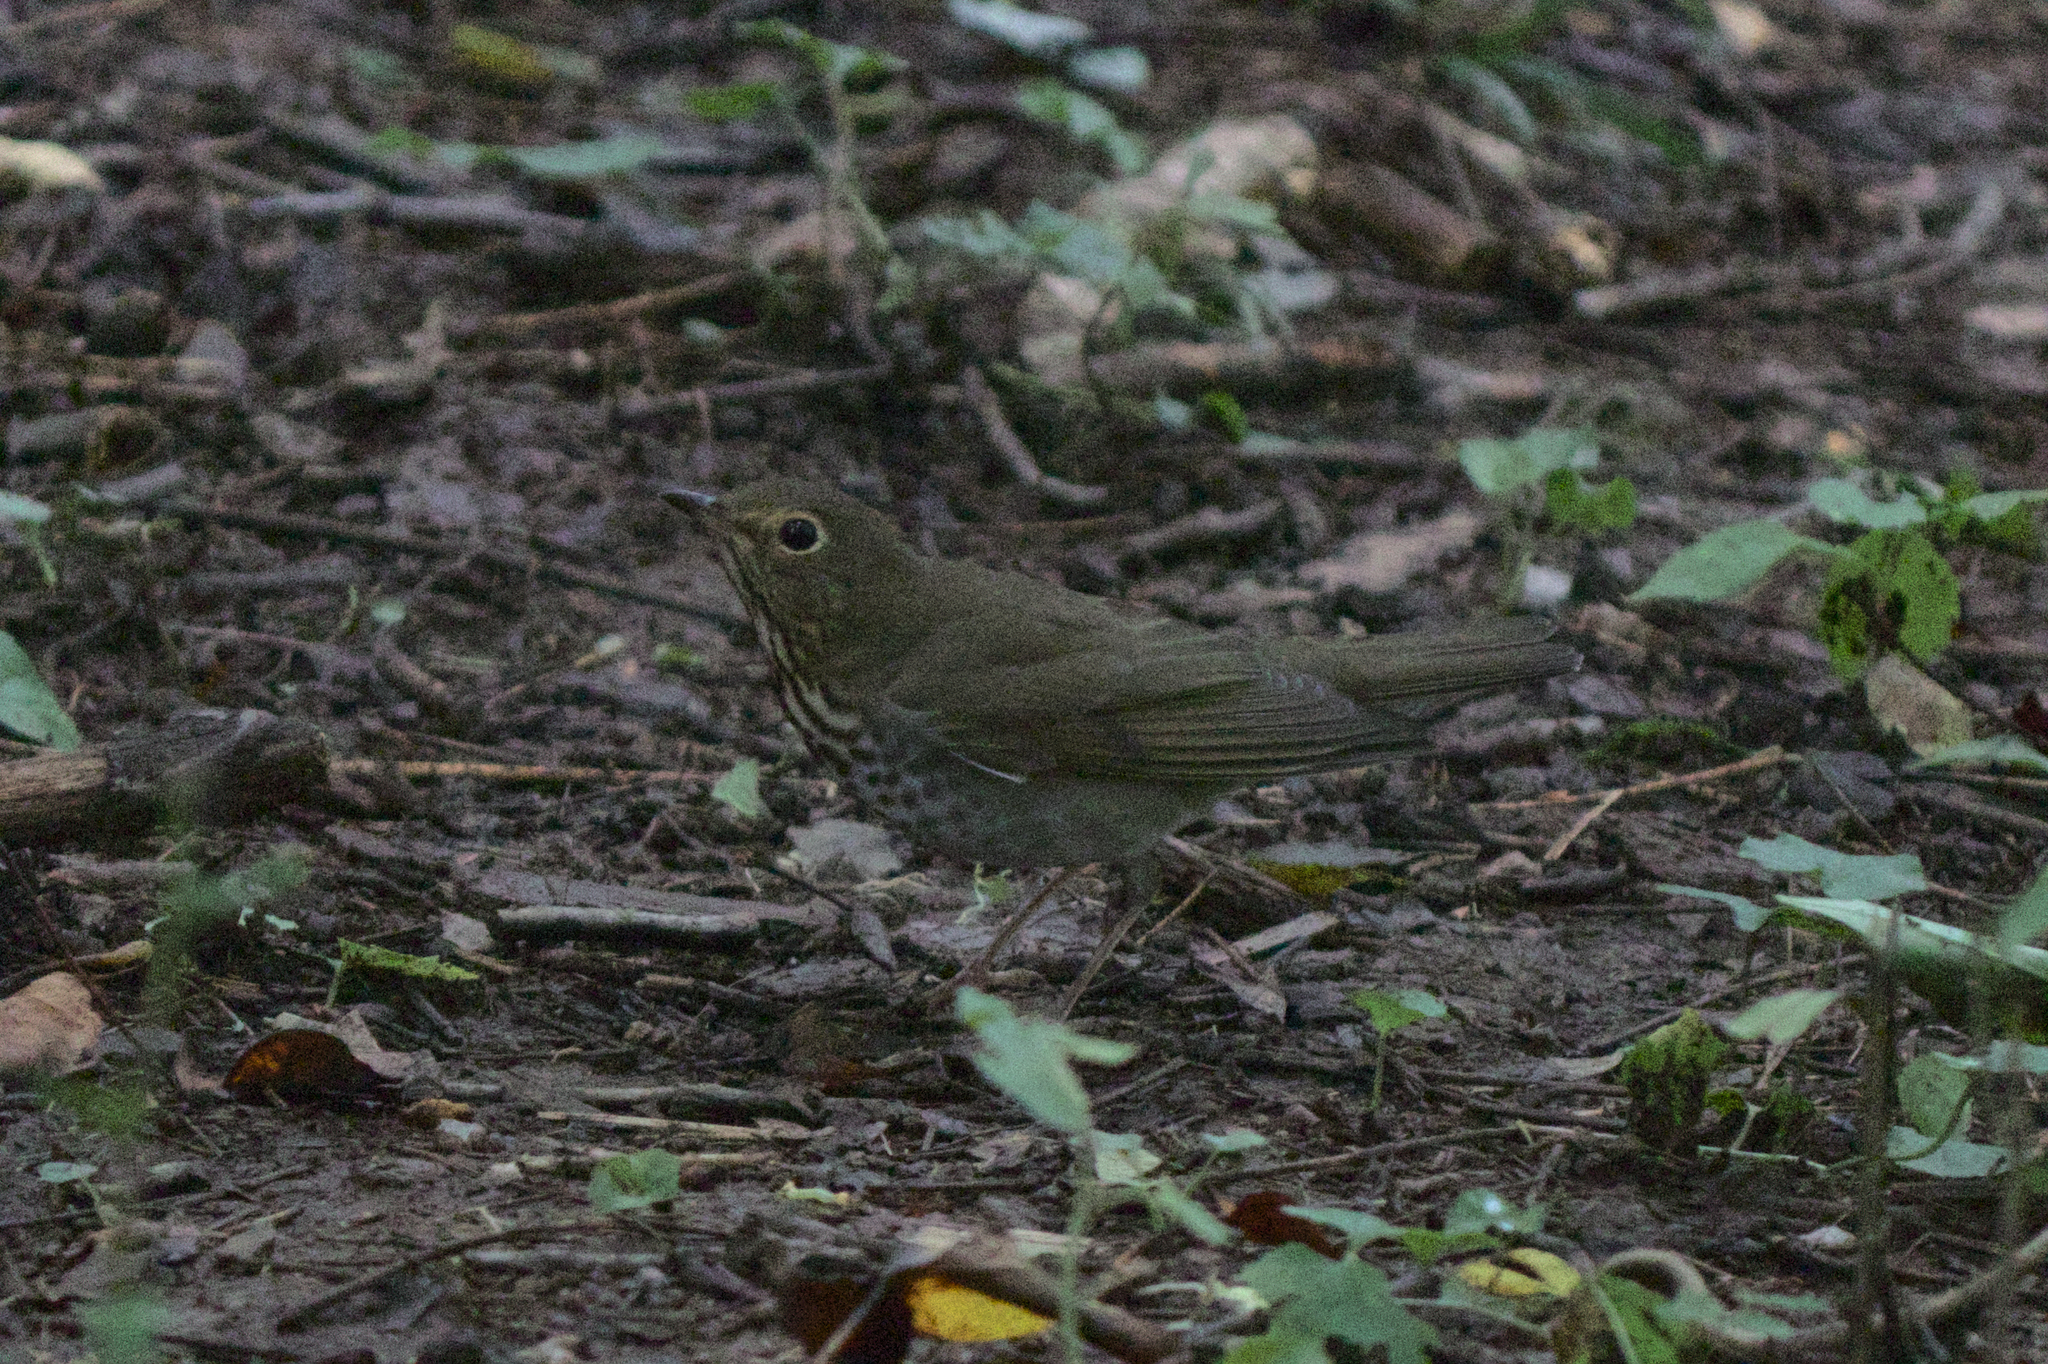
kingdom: Animalia
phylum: Chordata
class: Aves
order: Passeriformes
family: Turdidae
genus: Catharus
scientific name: Catharus ustulatus
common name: Swainson's thrush
